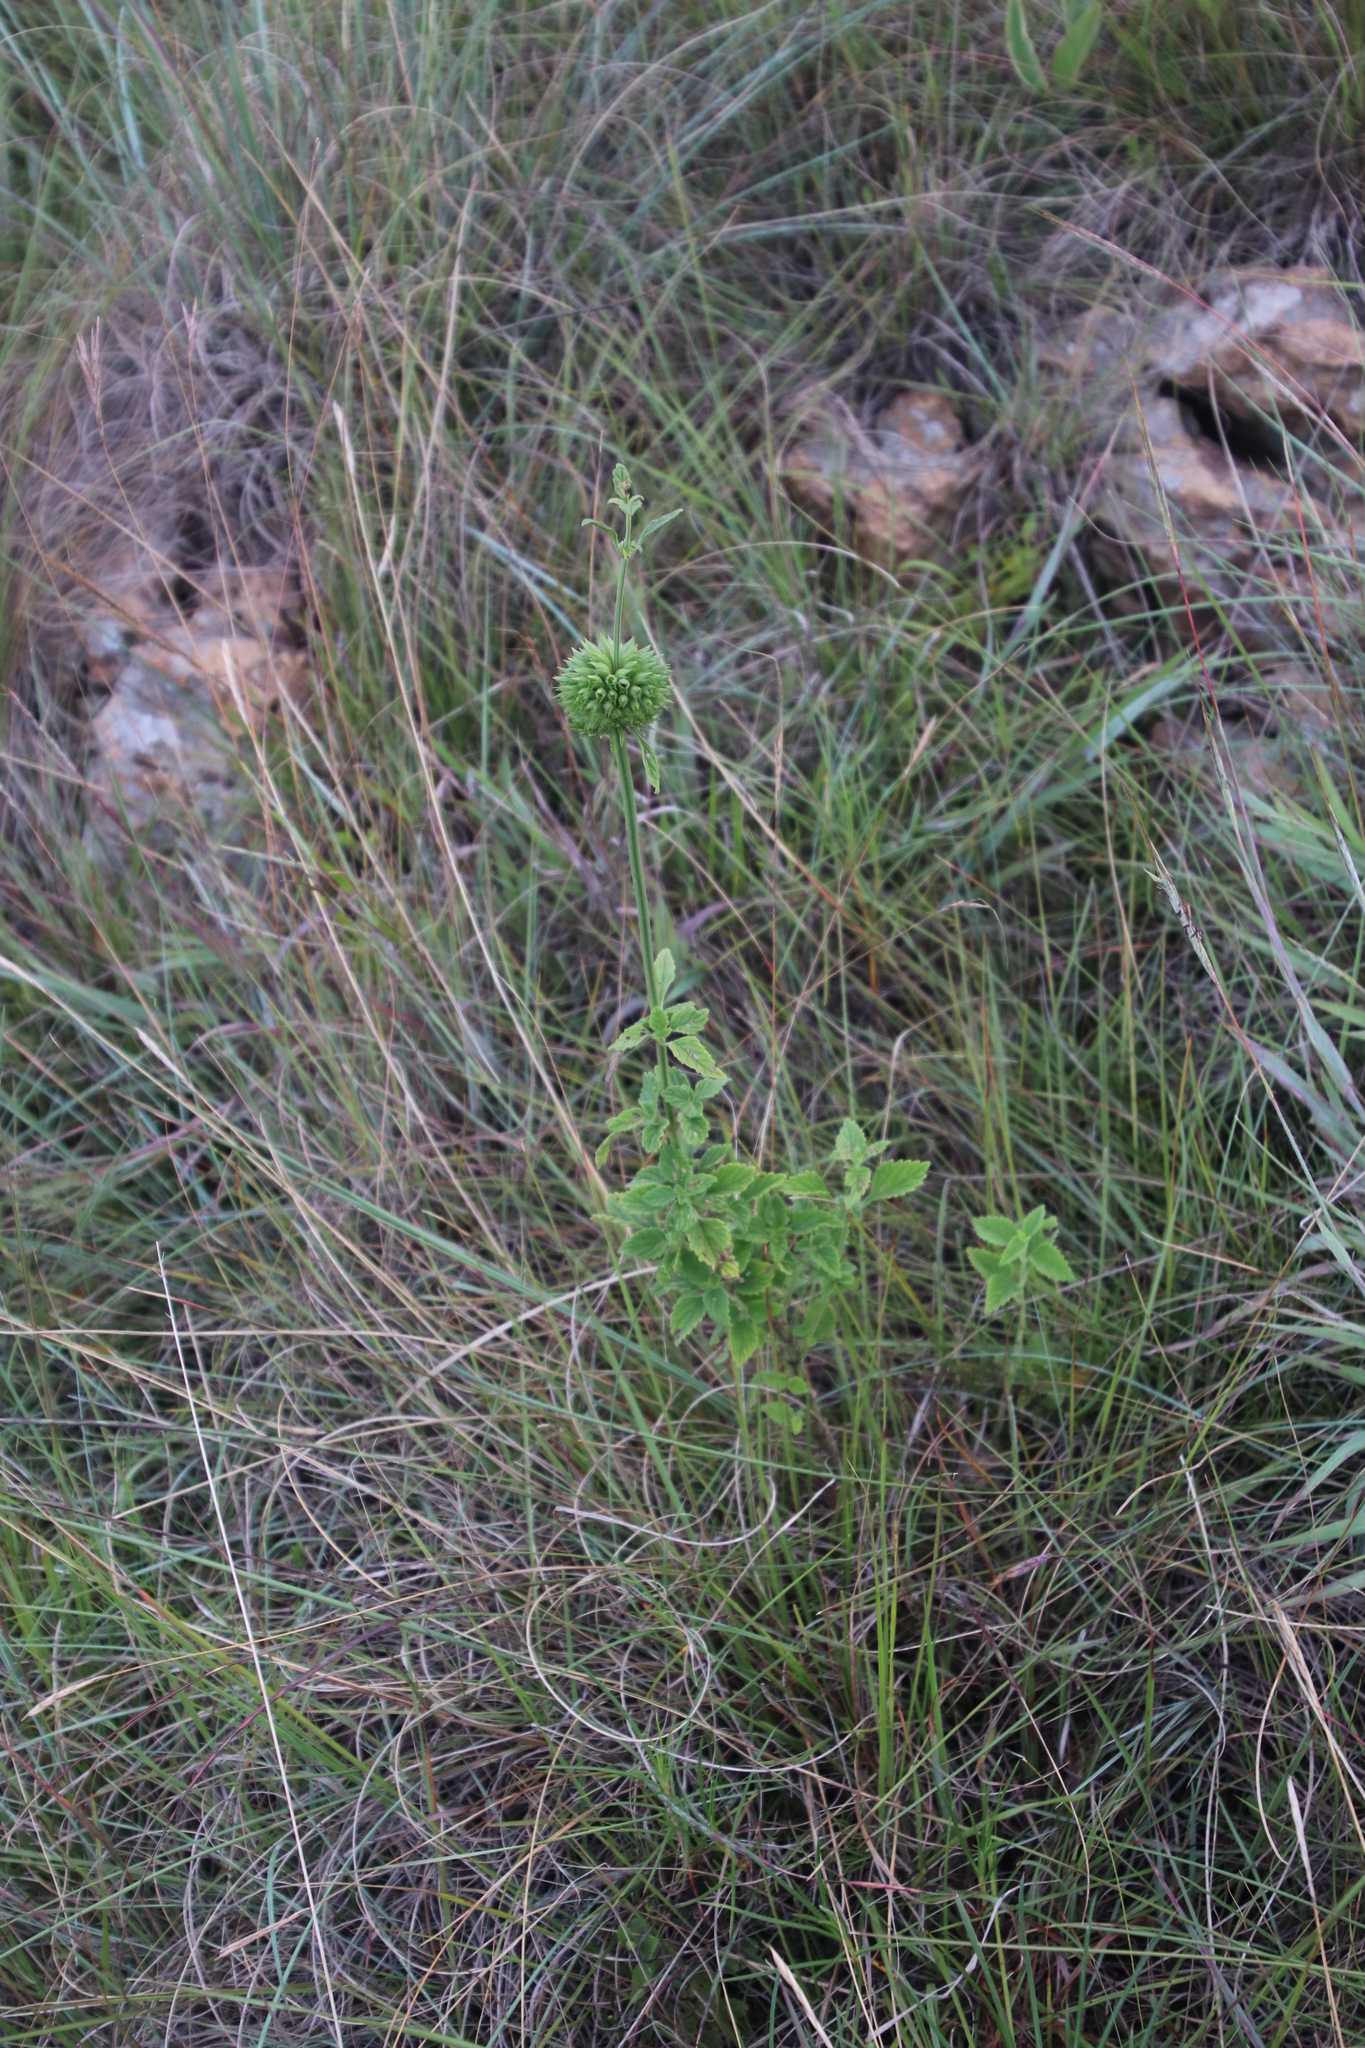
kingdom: Plantae
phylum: Tracheophyta
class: Magnoliopsida
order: Lamiales
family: Lamiaceae
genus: Leonotis
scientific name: Leonotis ocymifolia
